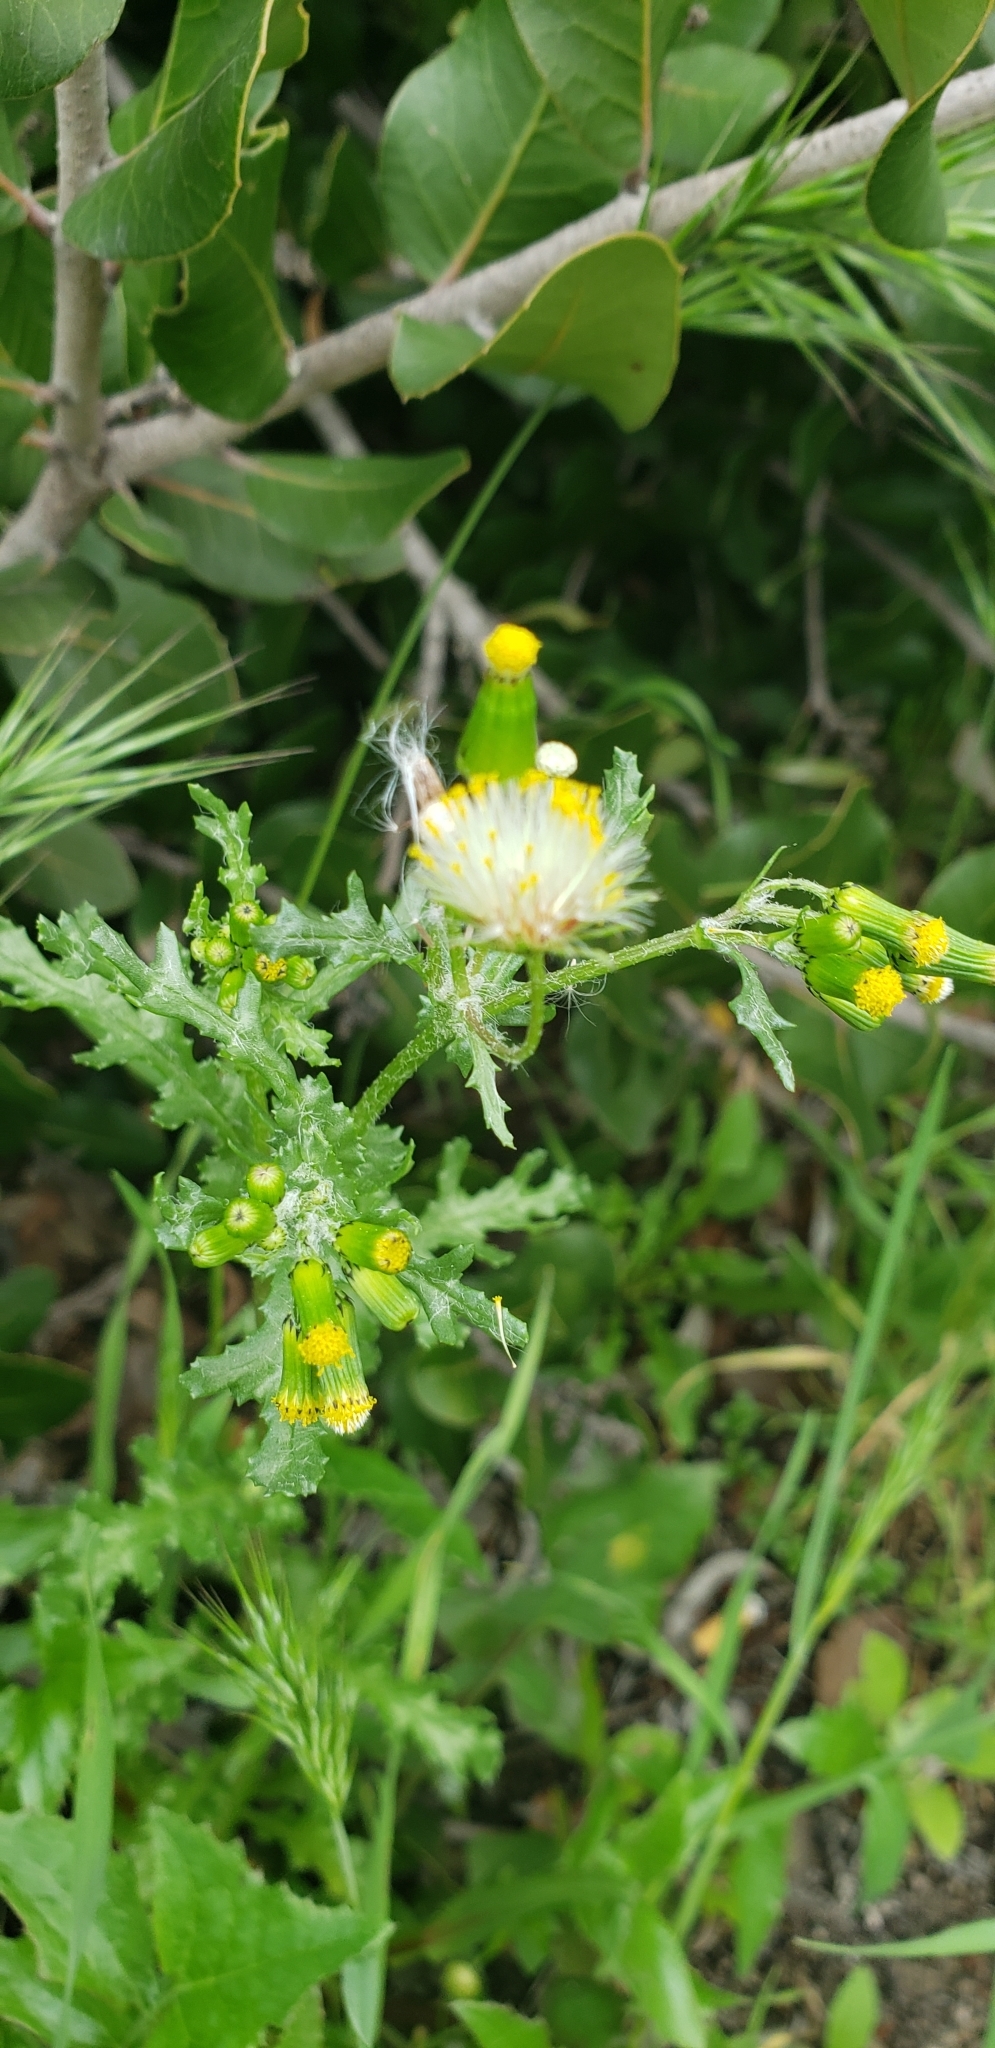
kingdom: Plantae
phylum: Tracheophyta
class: Magnoliopsida
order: Asterales
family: Asteraceae
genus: Senecio
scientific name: Senecio vulgaris
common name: Old-man-in-the-spring
